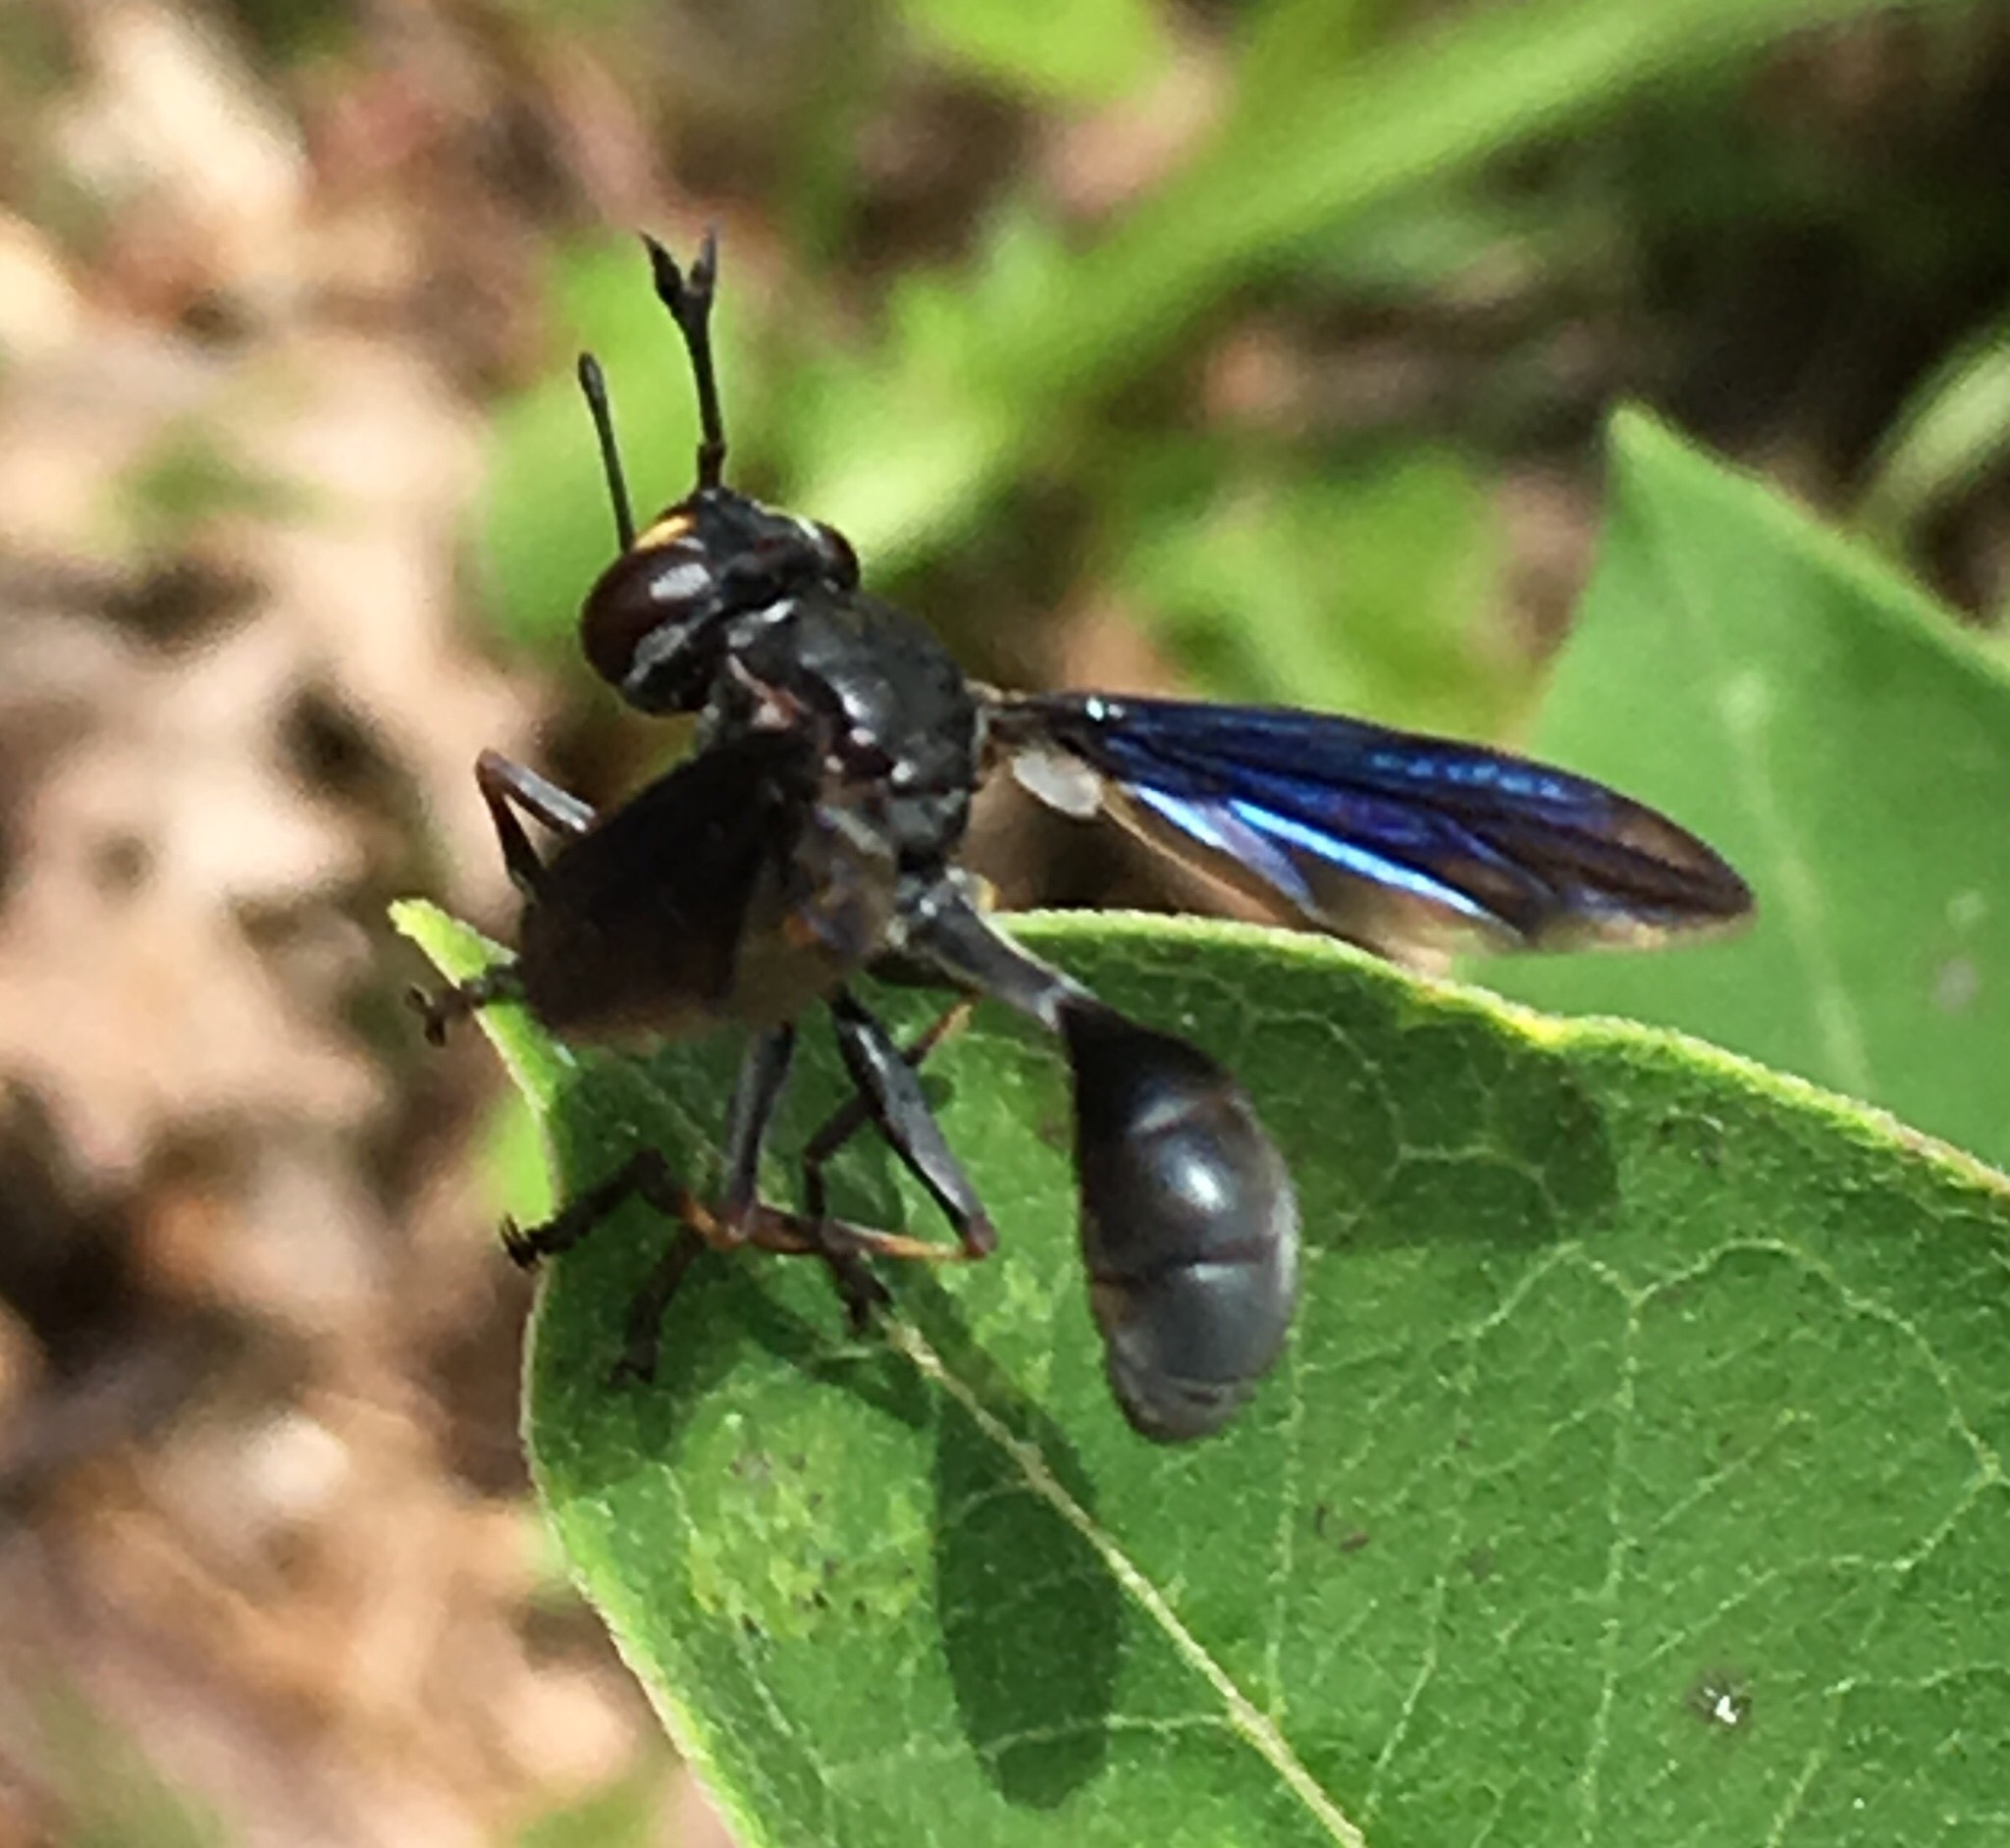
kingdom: Animalia
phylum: Arthropoda
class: Insecta
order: Diptera
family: Conopidae
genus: Physocephala
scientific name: Physocephala floridana
